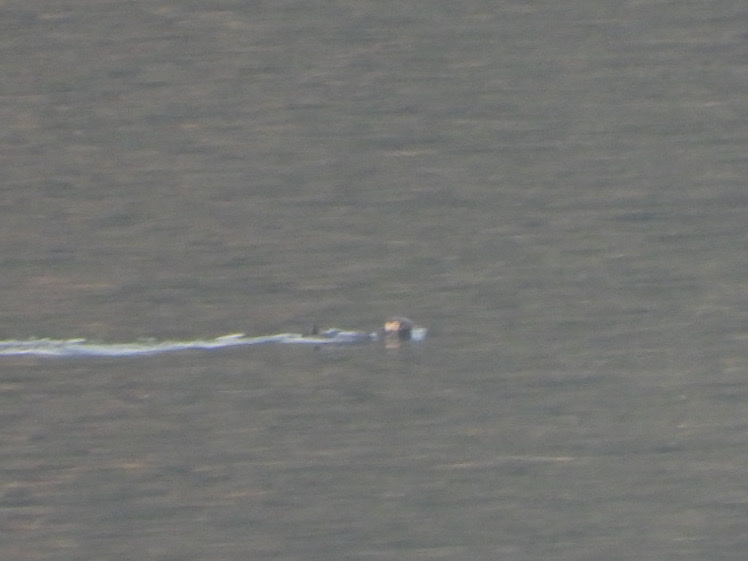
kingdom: Animalia
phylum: Chordata
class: Mammalia
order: Carnivora
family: Mustelidae
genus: Enhydra
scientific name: Enhydra lutris
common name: Sea otter
